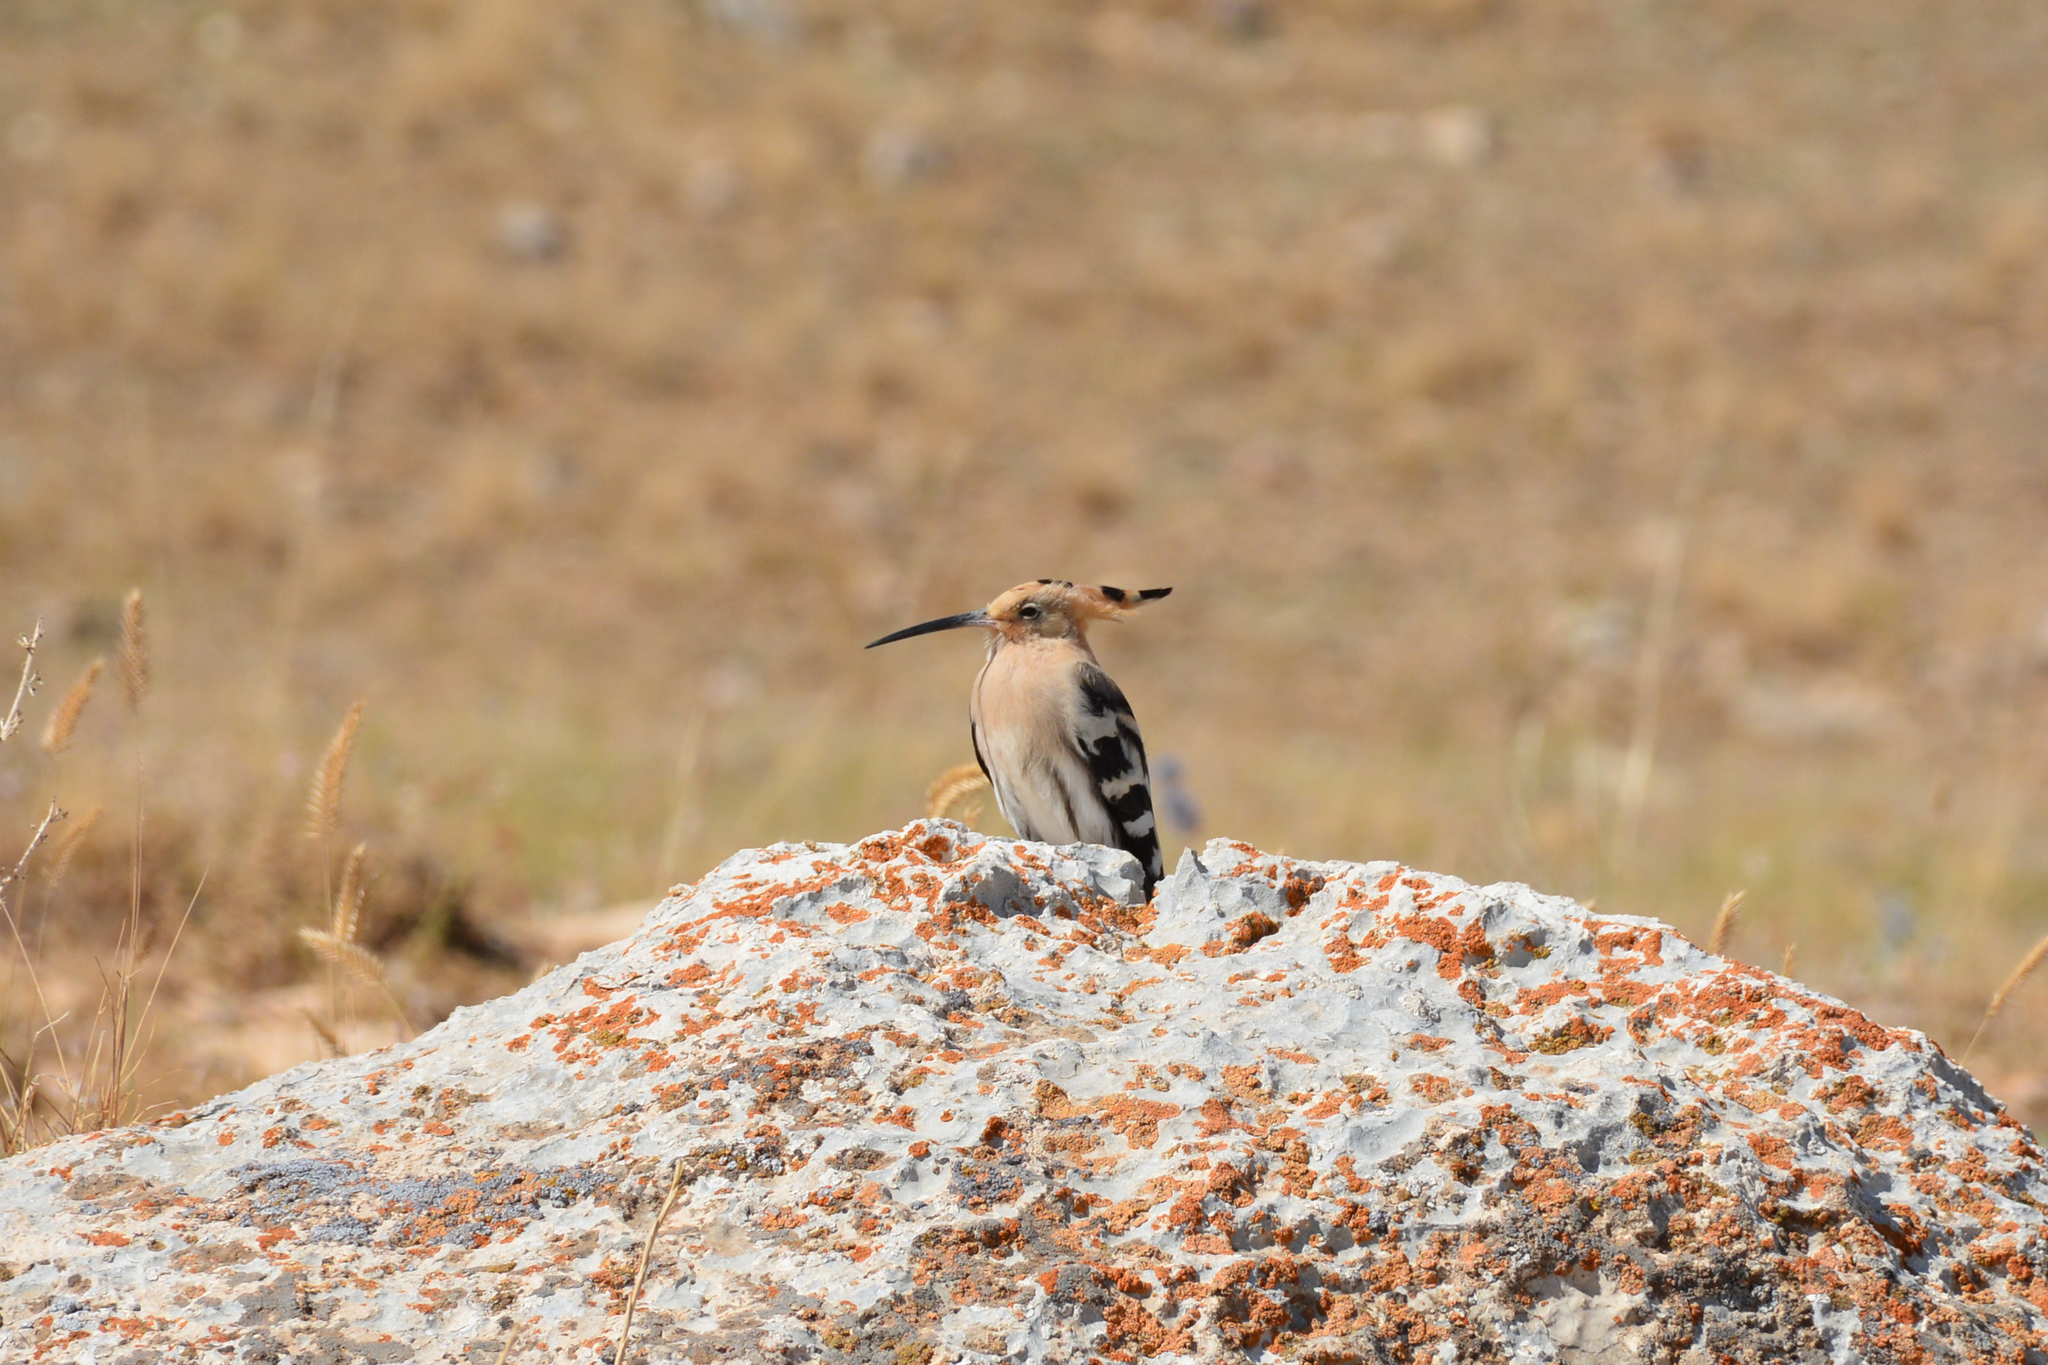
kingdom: Animalia
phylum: Chordata
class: Aves
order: Bucerotiformes
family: Upupidae
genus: Upupa
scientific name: Upupa epops
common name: Eurasian hoopoe
